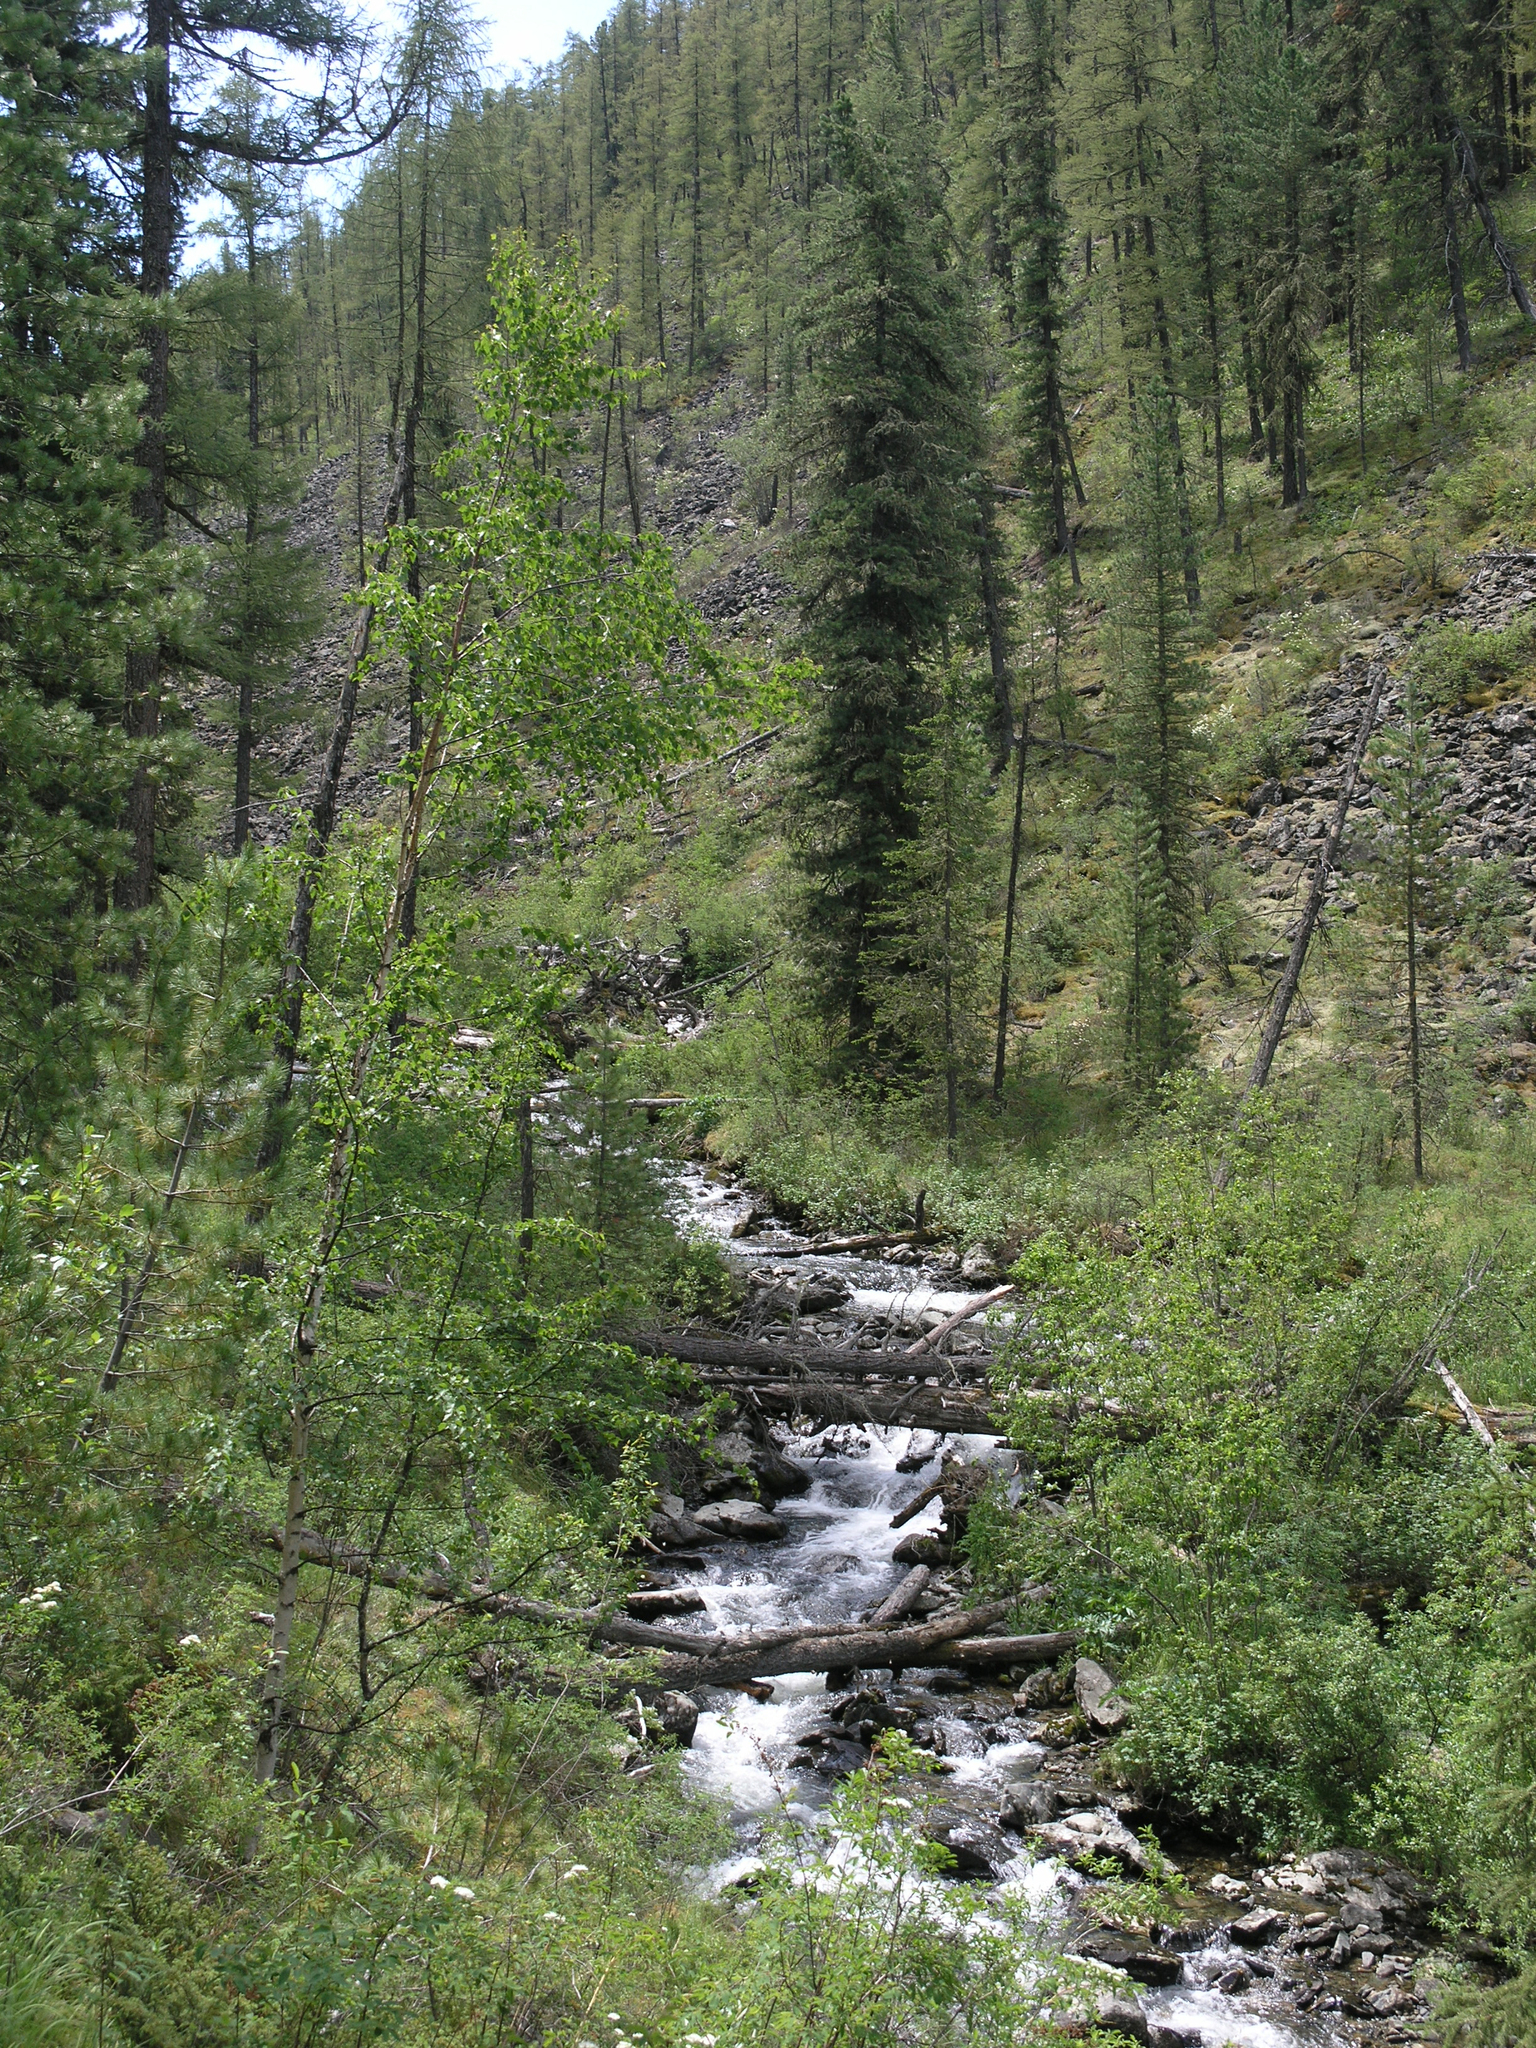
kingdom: Plantae
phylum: Tracheophyta
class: Pinopsida
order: Pinales
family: Pinaceae
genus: Pinus
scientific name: Pinus sibirica
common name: Siberian pine
